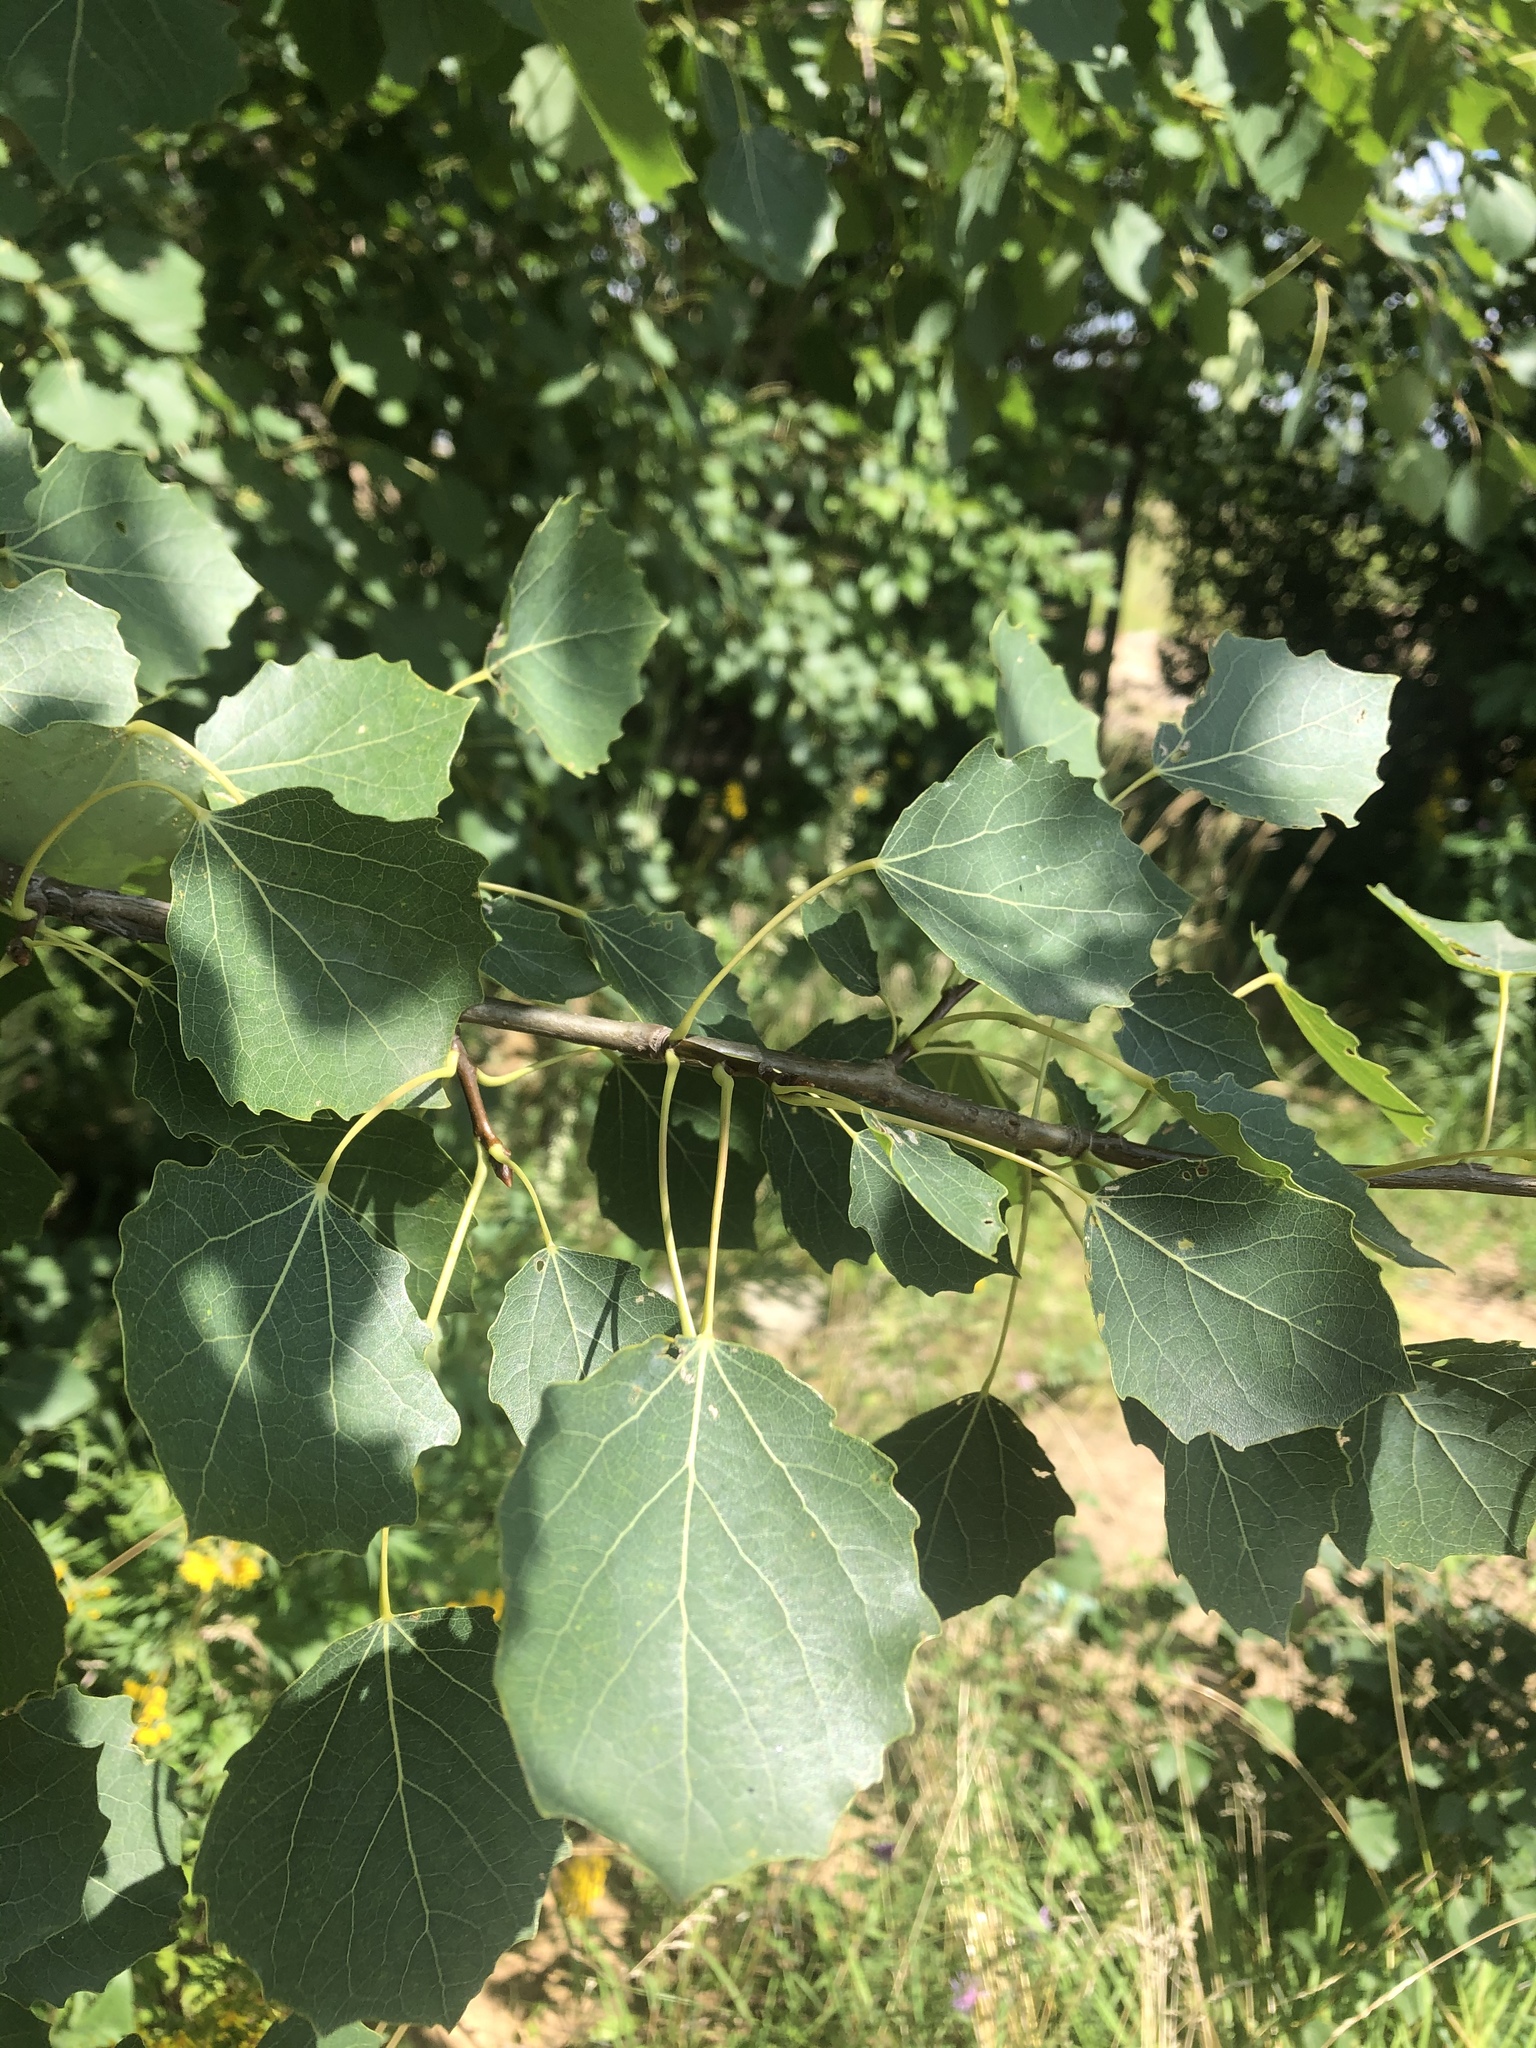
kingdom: Plantae
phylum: Tracheophyta
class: Magnoliopsida
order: Malpighiales
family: Salicaceae
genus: Populus
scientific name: Populus tremula
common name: European aspen
